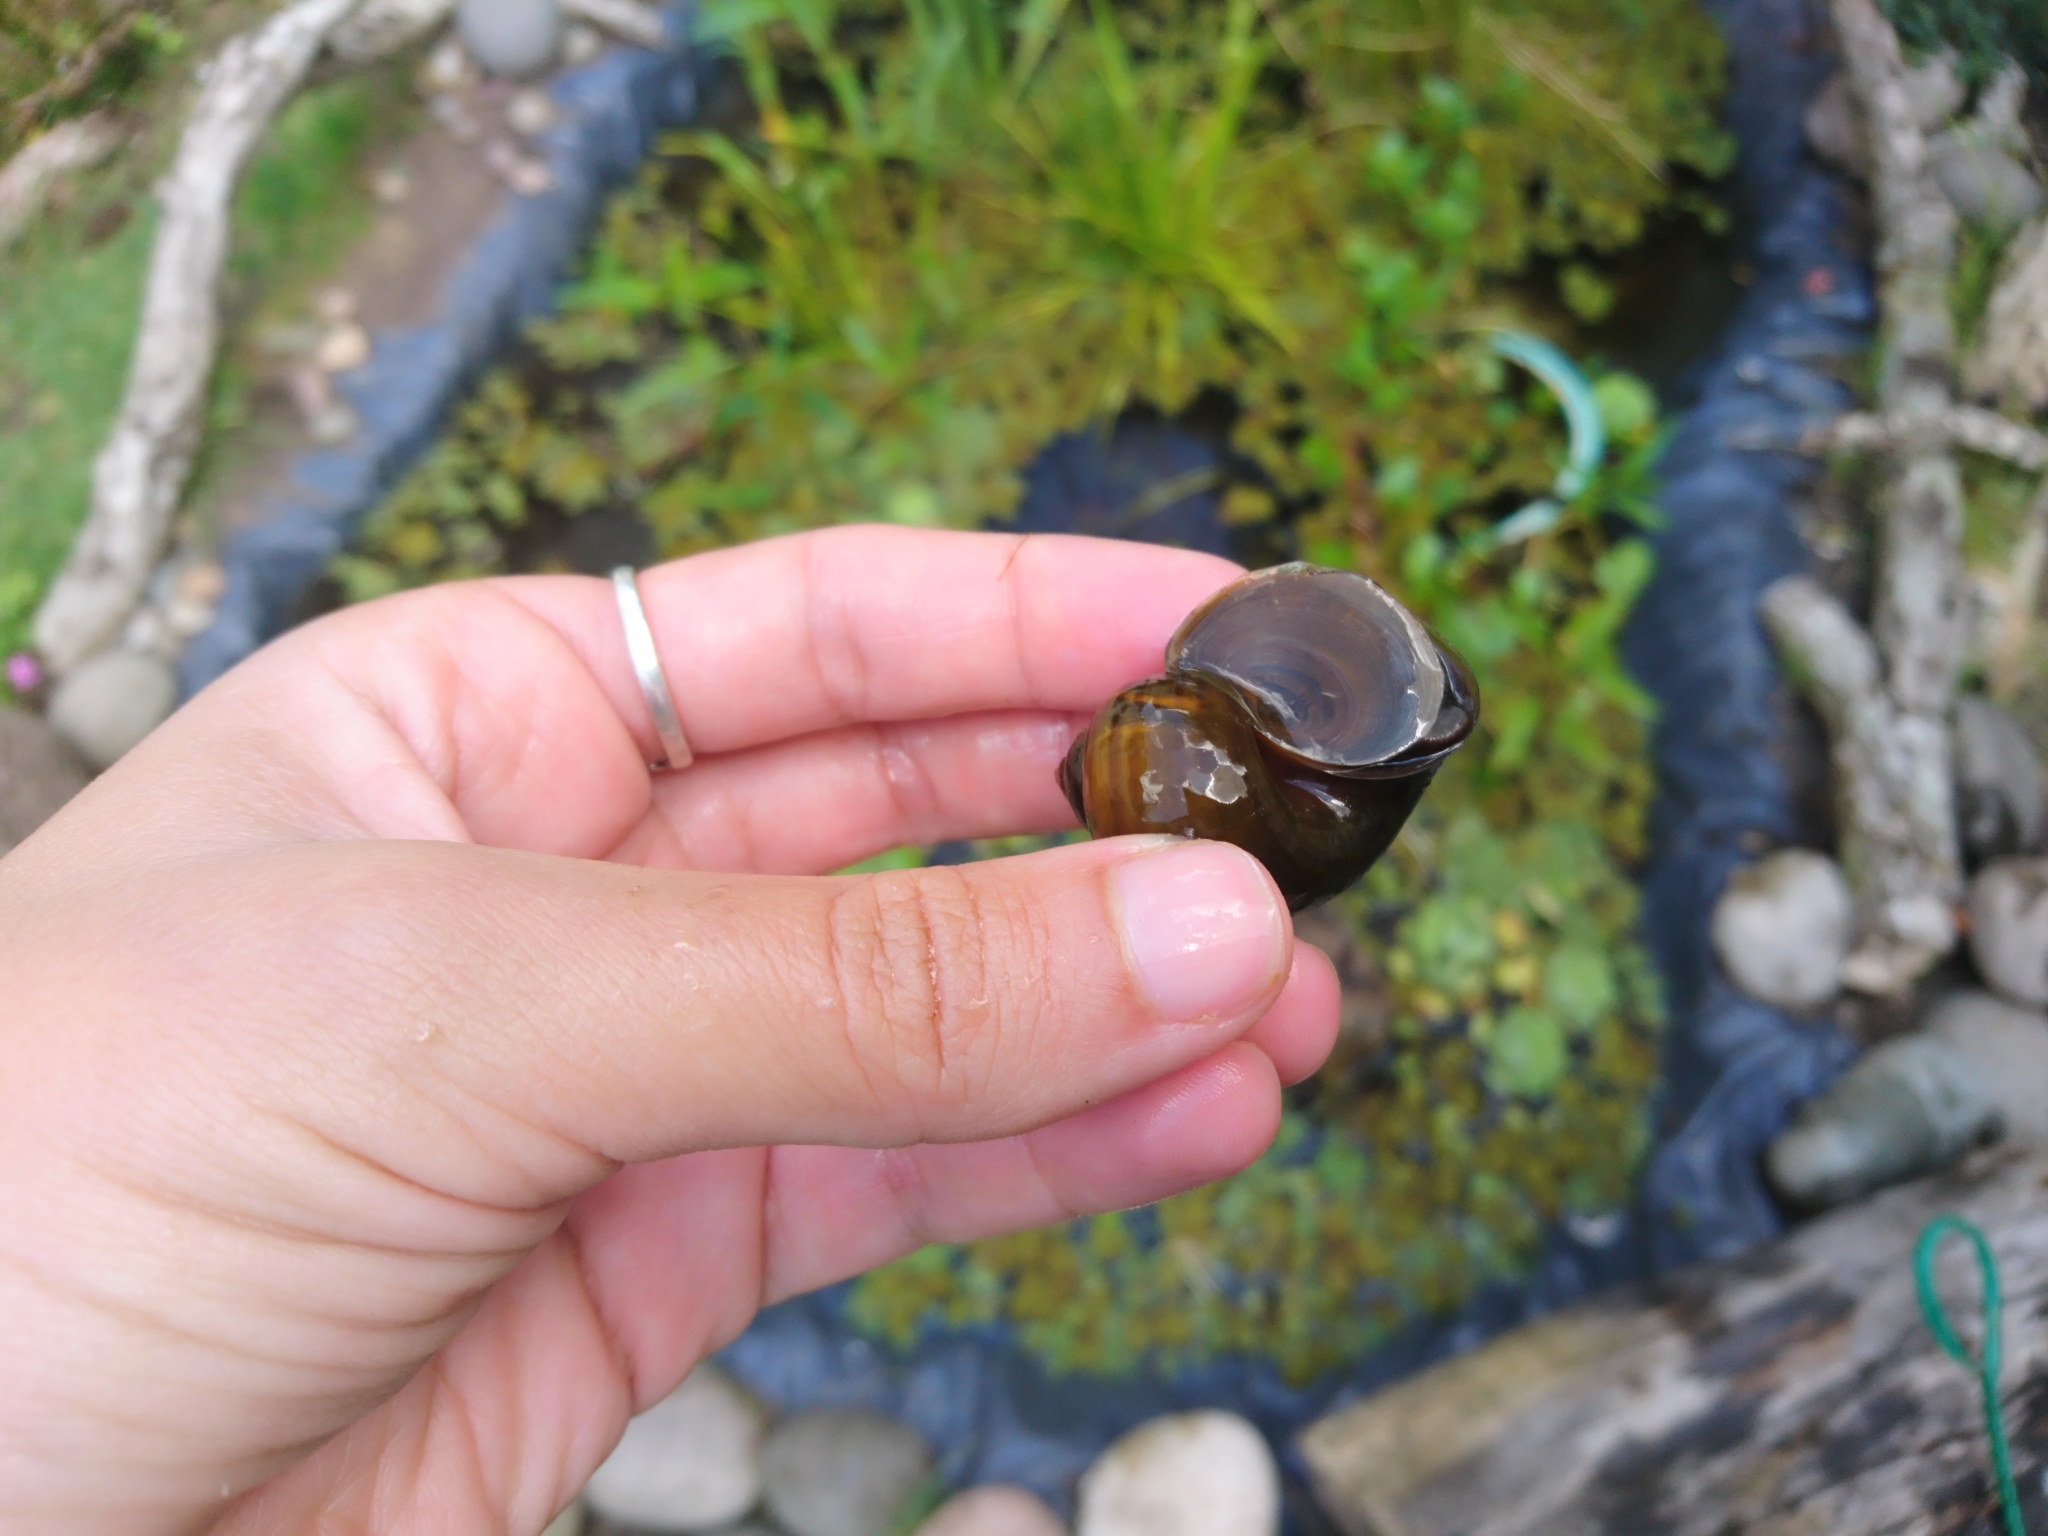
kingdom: Animalia
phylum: Mollusca
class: Gastropoda
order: Architaenioglossa
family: Ampullariidae
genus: Pomacea
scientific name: Pomacea canaliculata
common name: Channeled applesnail
